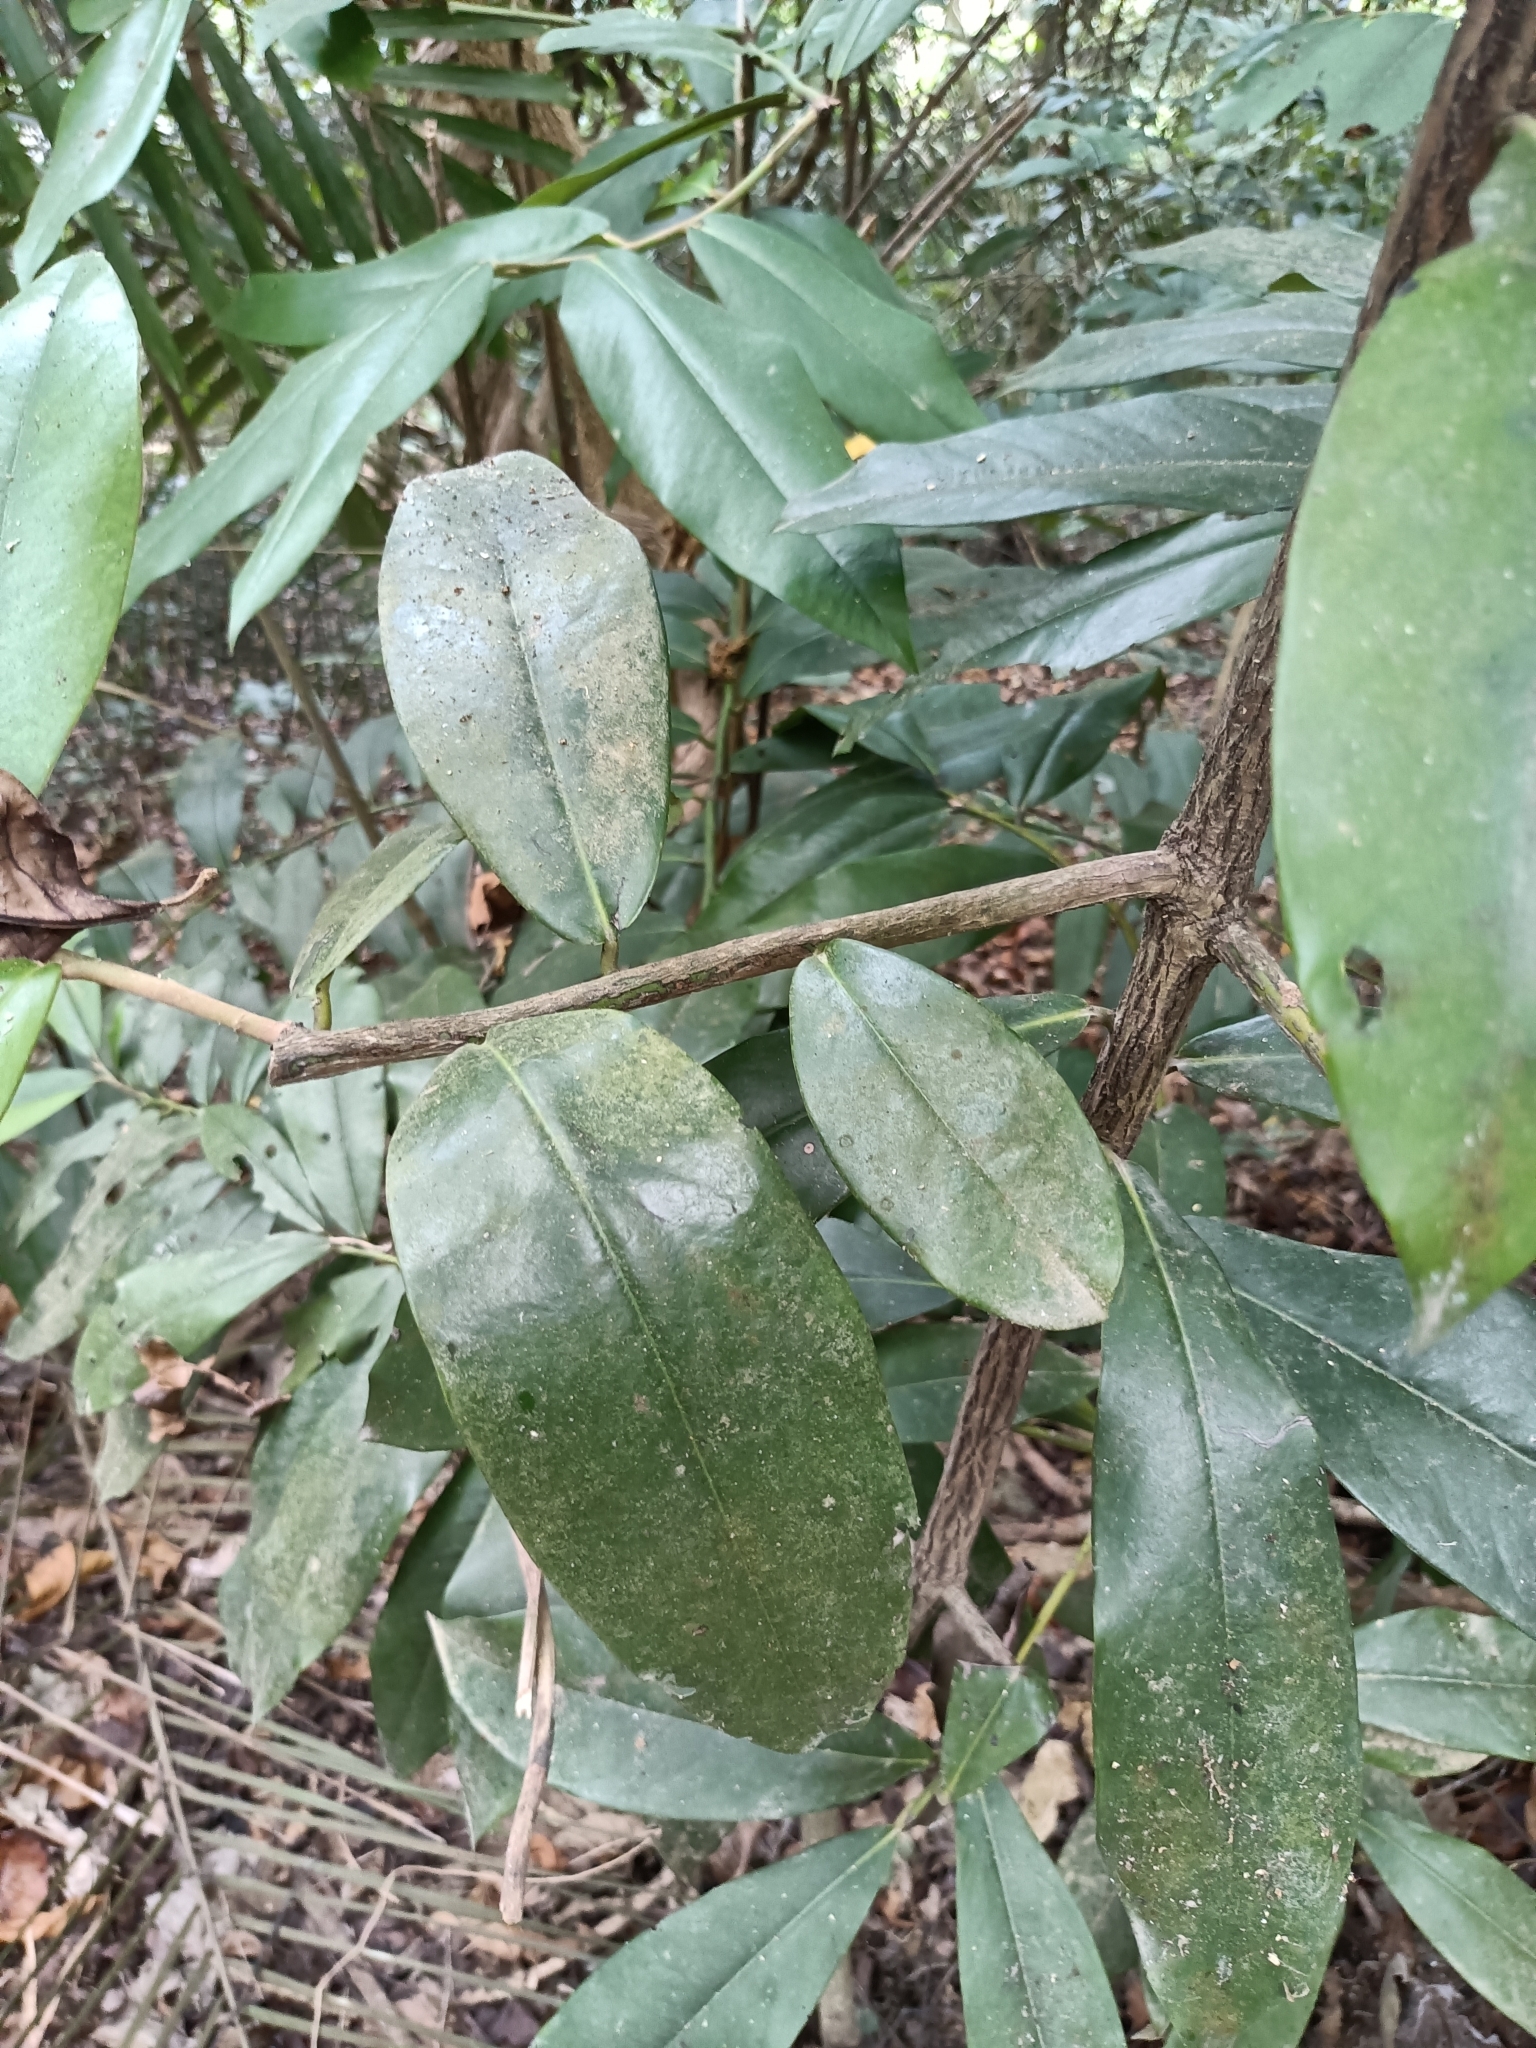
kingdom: Plantae
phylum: Tracheophyta
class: Magnoliopsida
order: Ericales
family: Ebenaceae
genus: Diospyros
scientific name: Diospyros blancoi
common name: Mabola-tree
